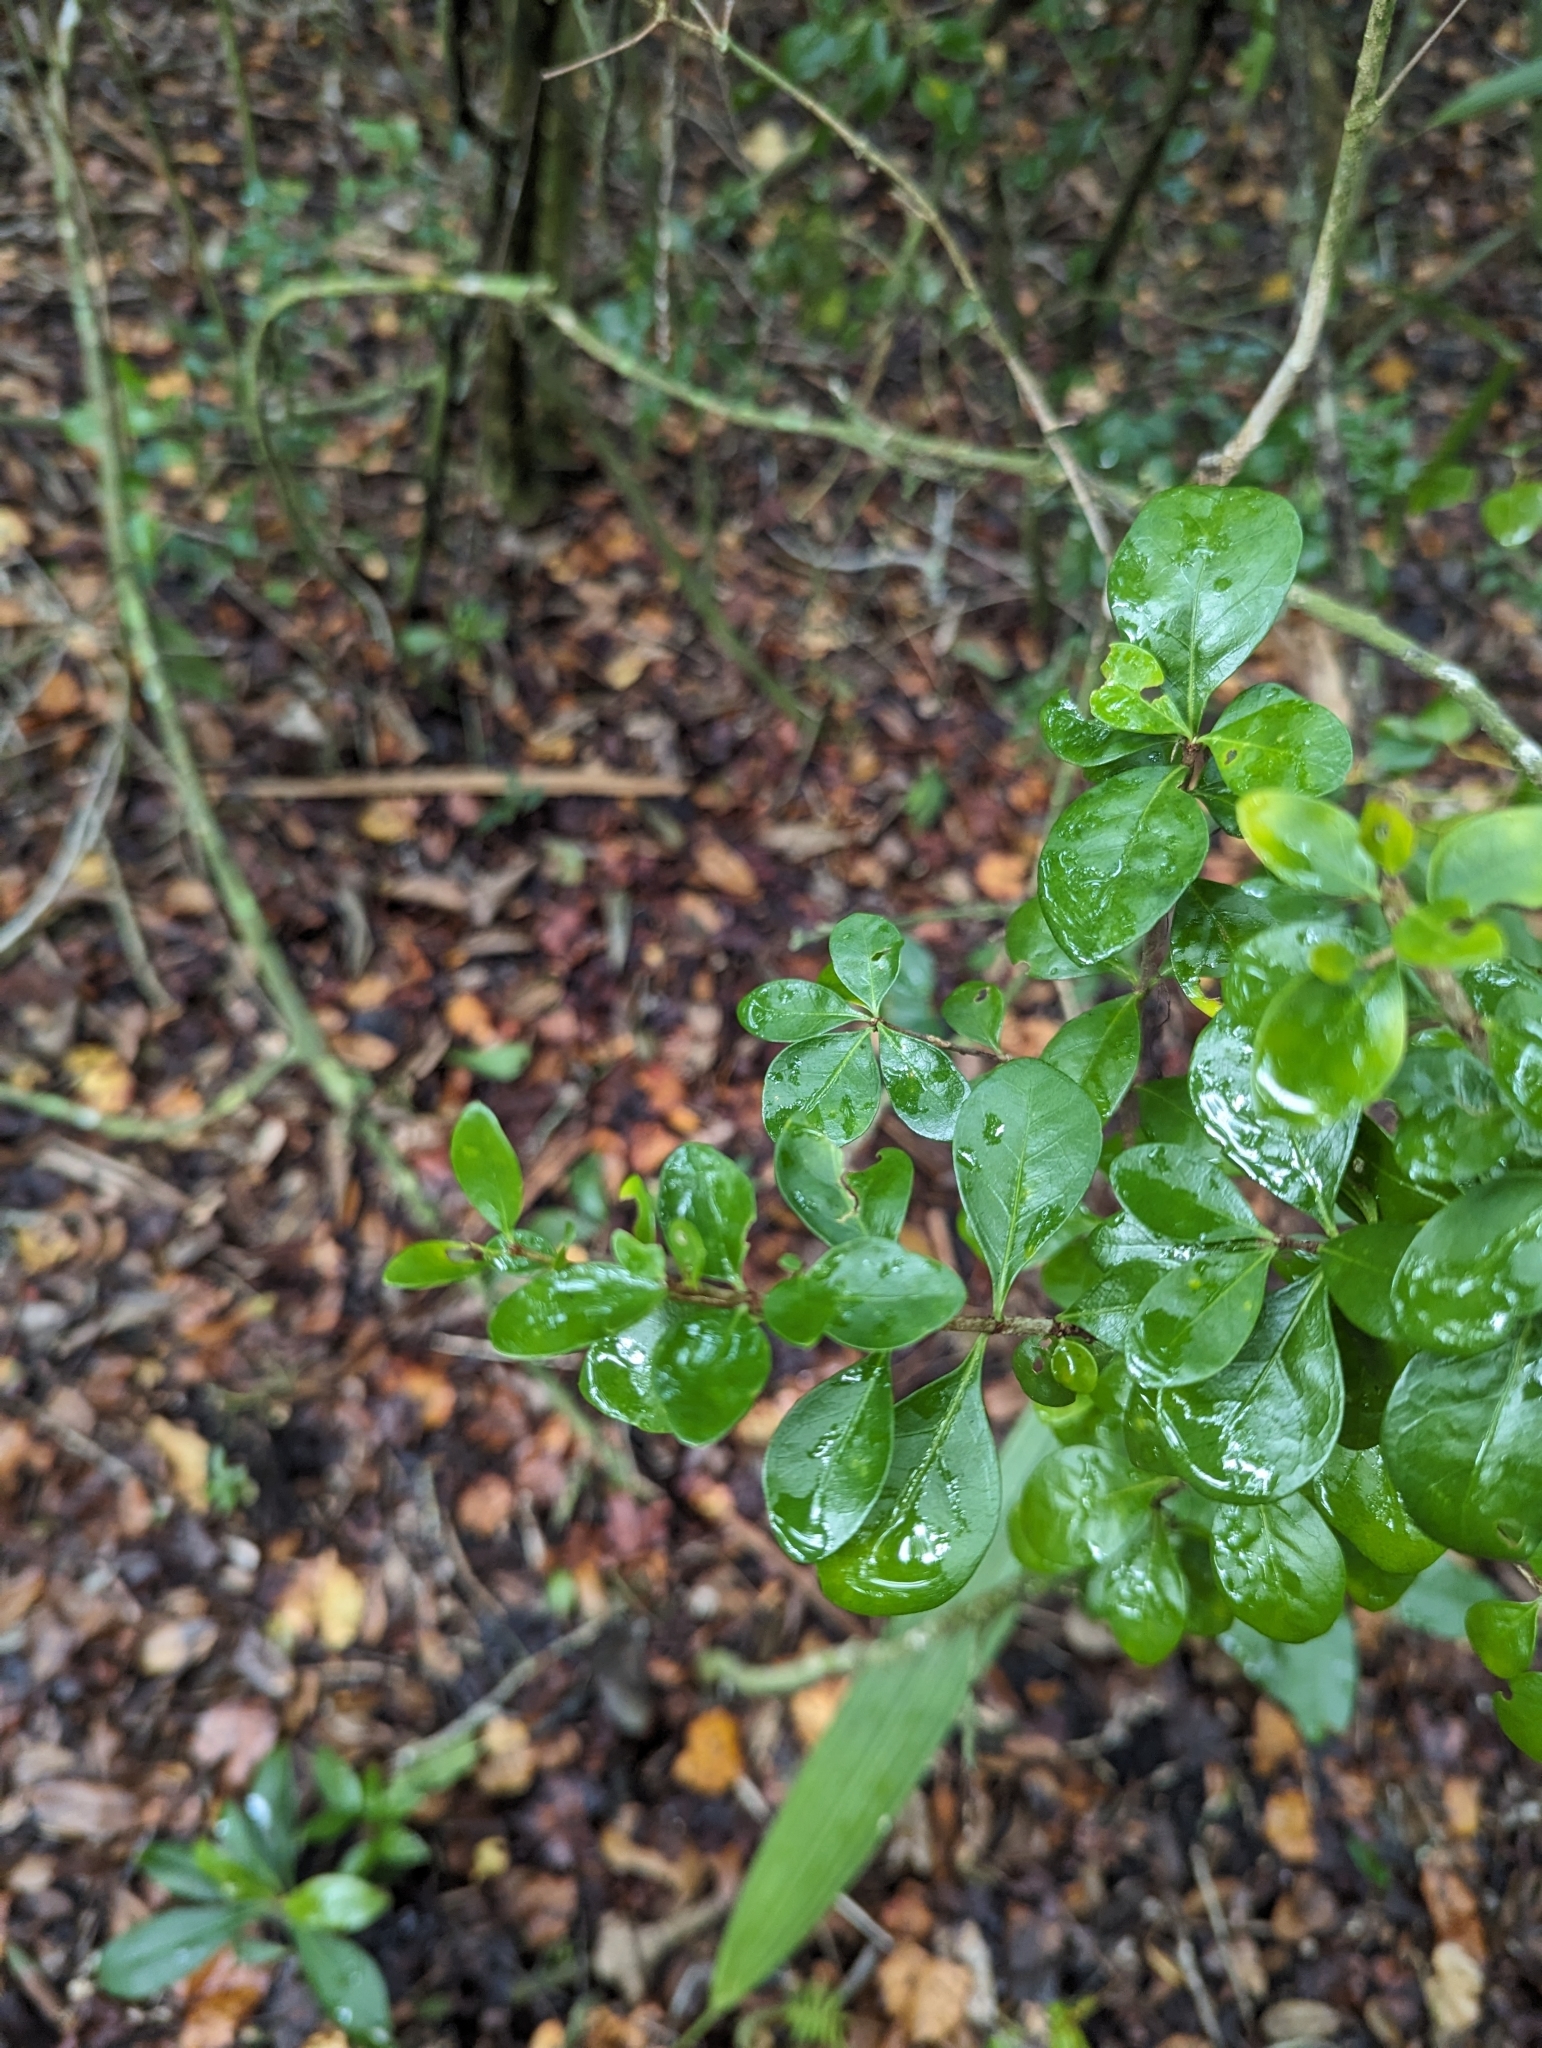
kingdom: Plantae
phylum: Tracheophyta
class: Magnoliopsida
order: Gentianales
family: Rubiaceae
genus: Randia
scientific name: Randia aculeata
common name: Inkberry
